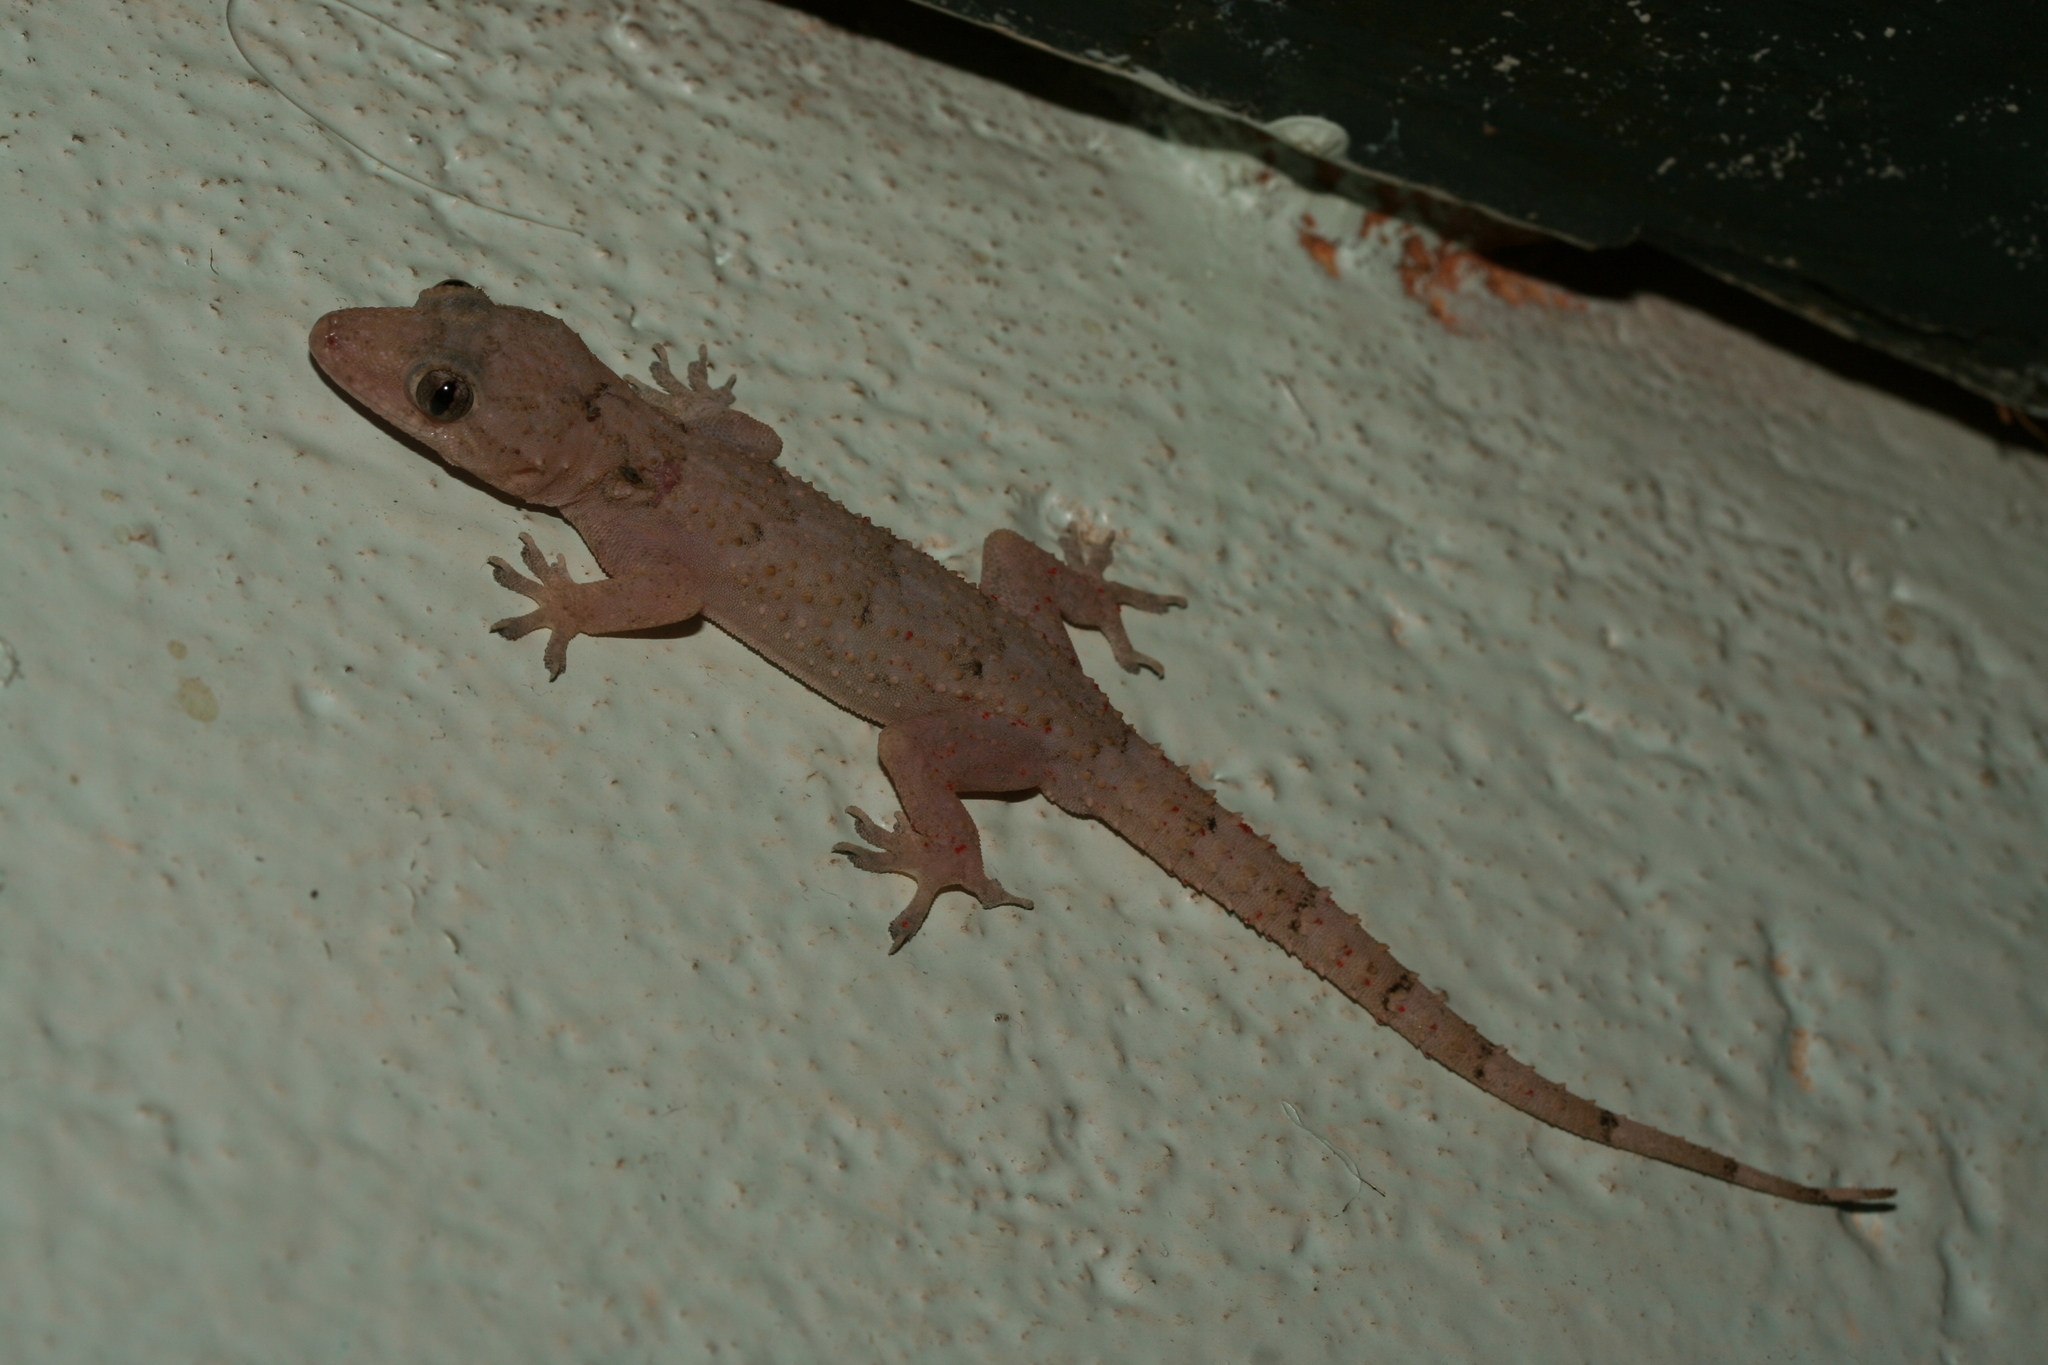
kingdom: Animalia
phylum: Chordata
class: Squamata
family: Gekkonidae
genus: Hemidactylus
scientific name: Hemidactylus mercatorius
